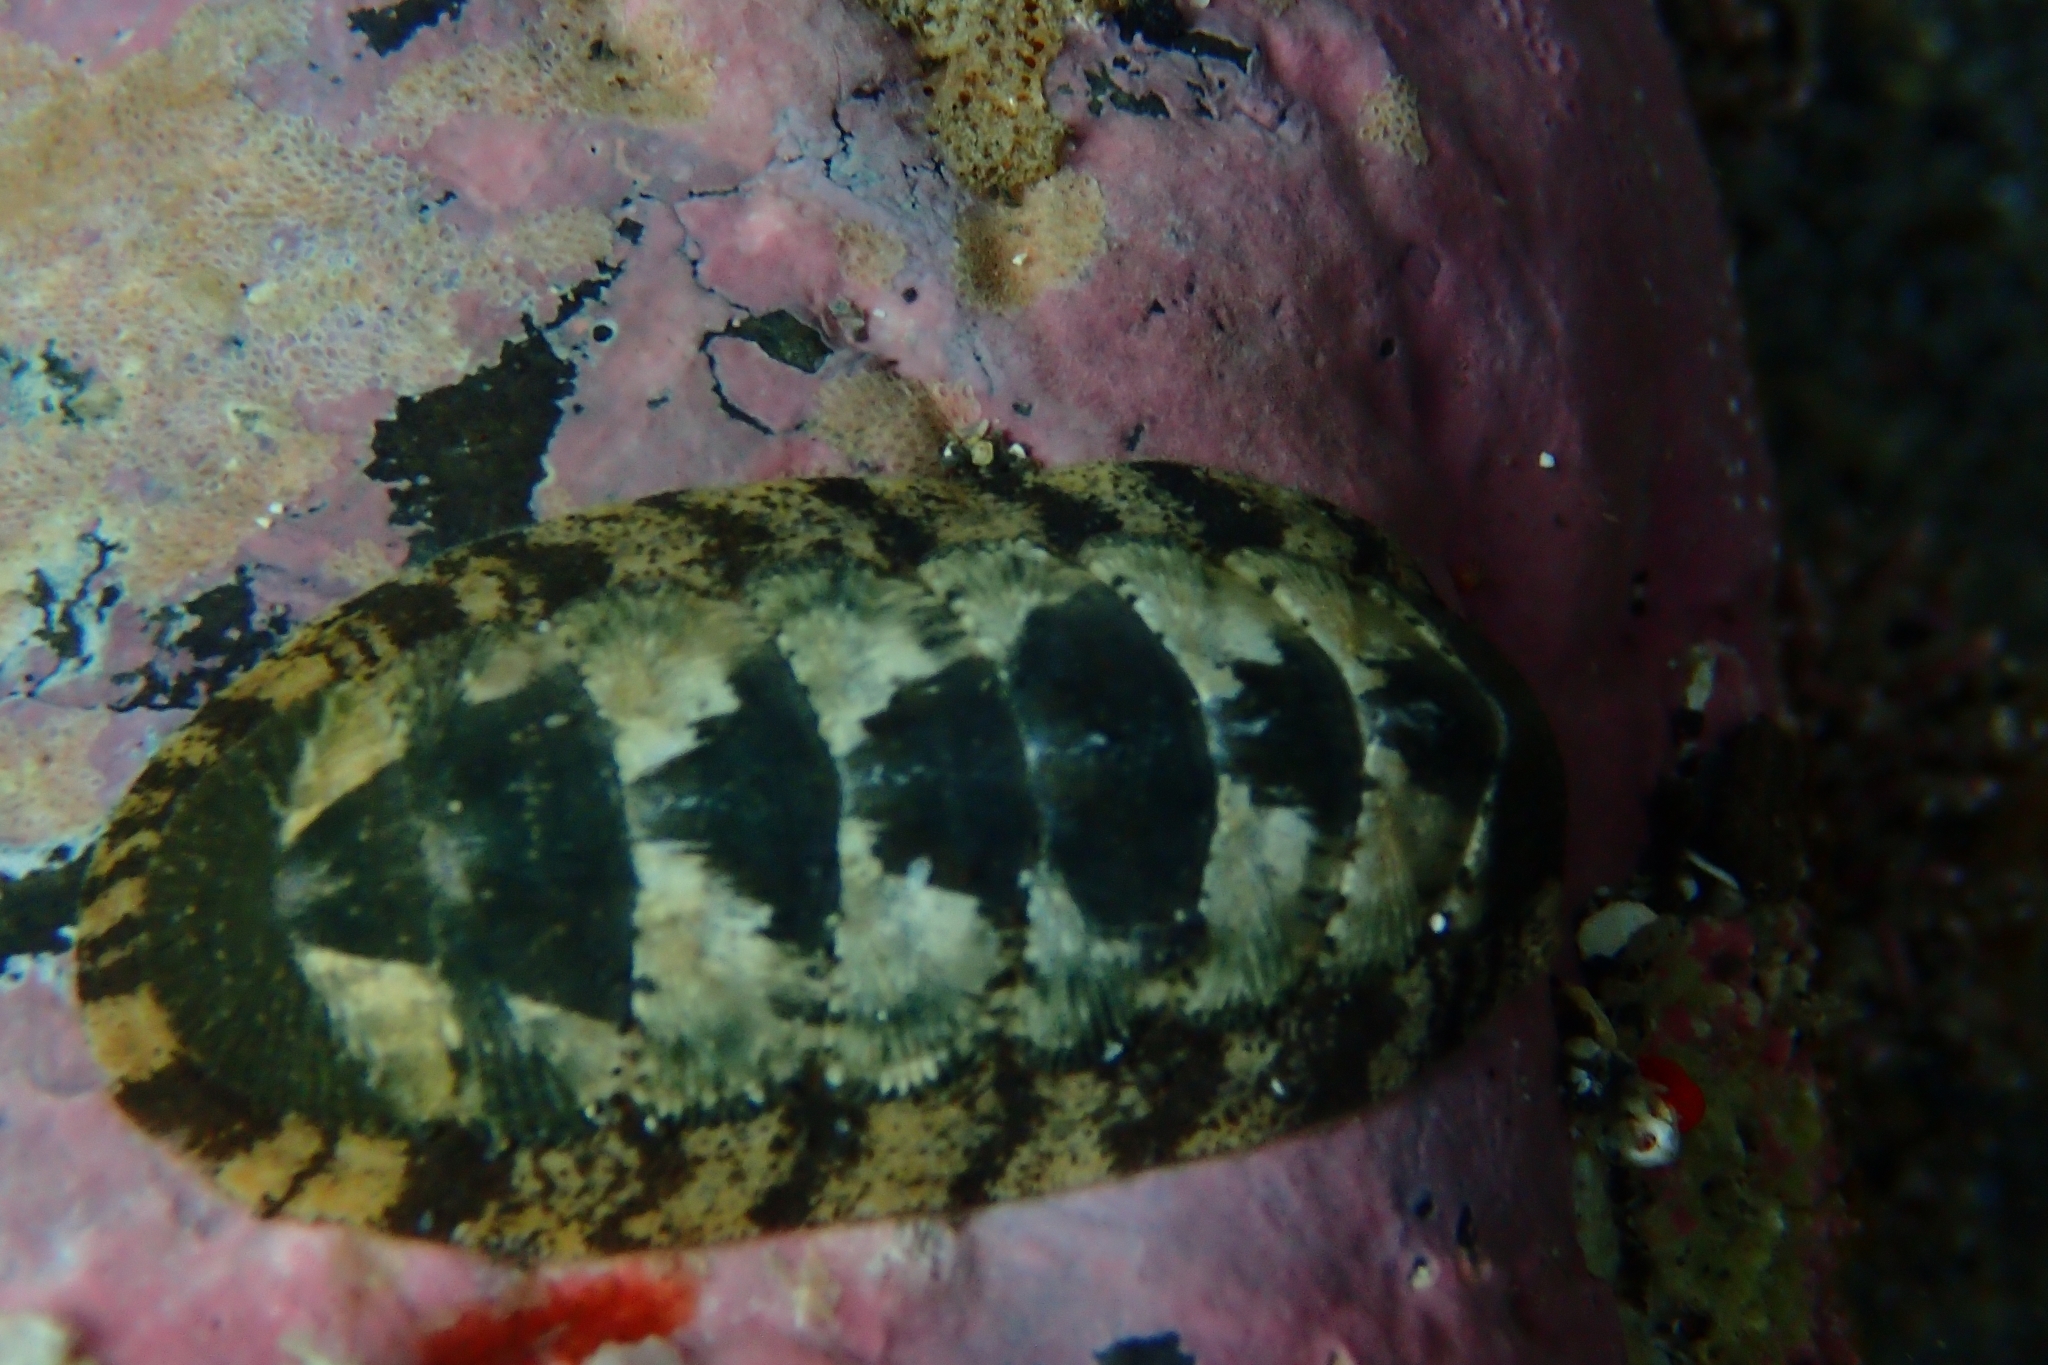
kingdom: Animalia
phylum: Mollusca
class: Polyplacophora
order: Chitonida
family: Ischnochitonidae
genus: Ischnochiton
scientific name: Ischnochiton maorianus
